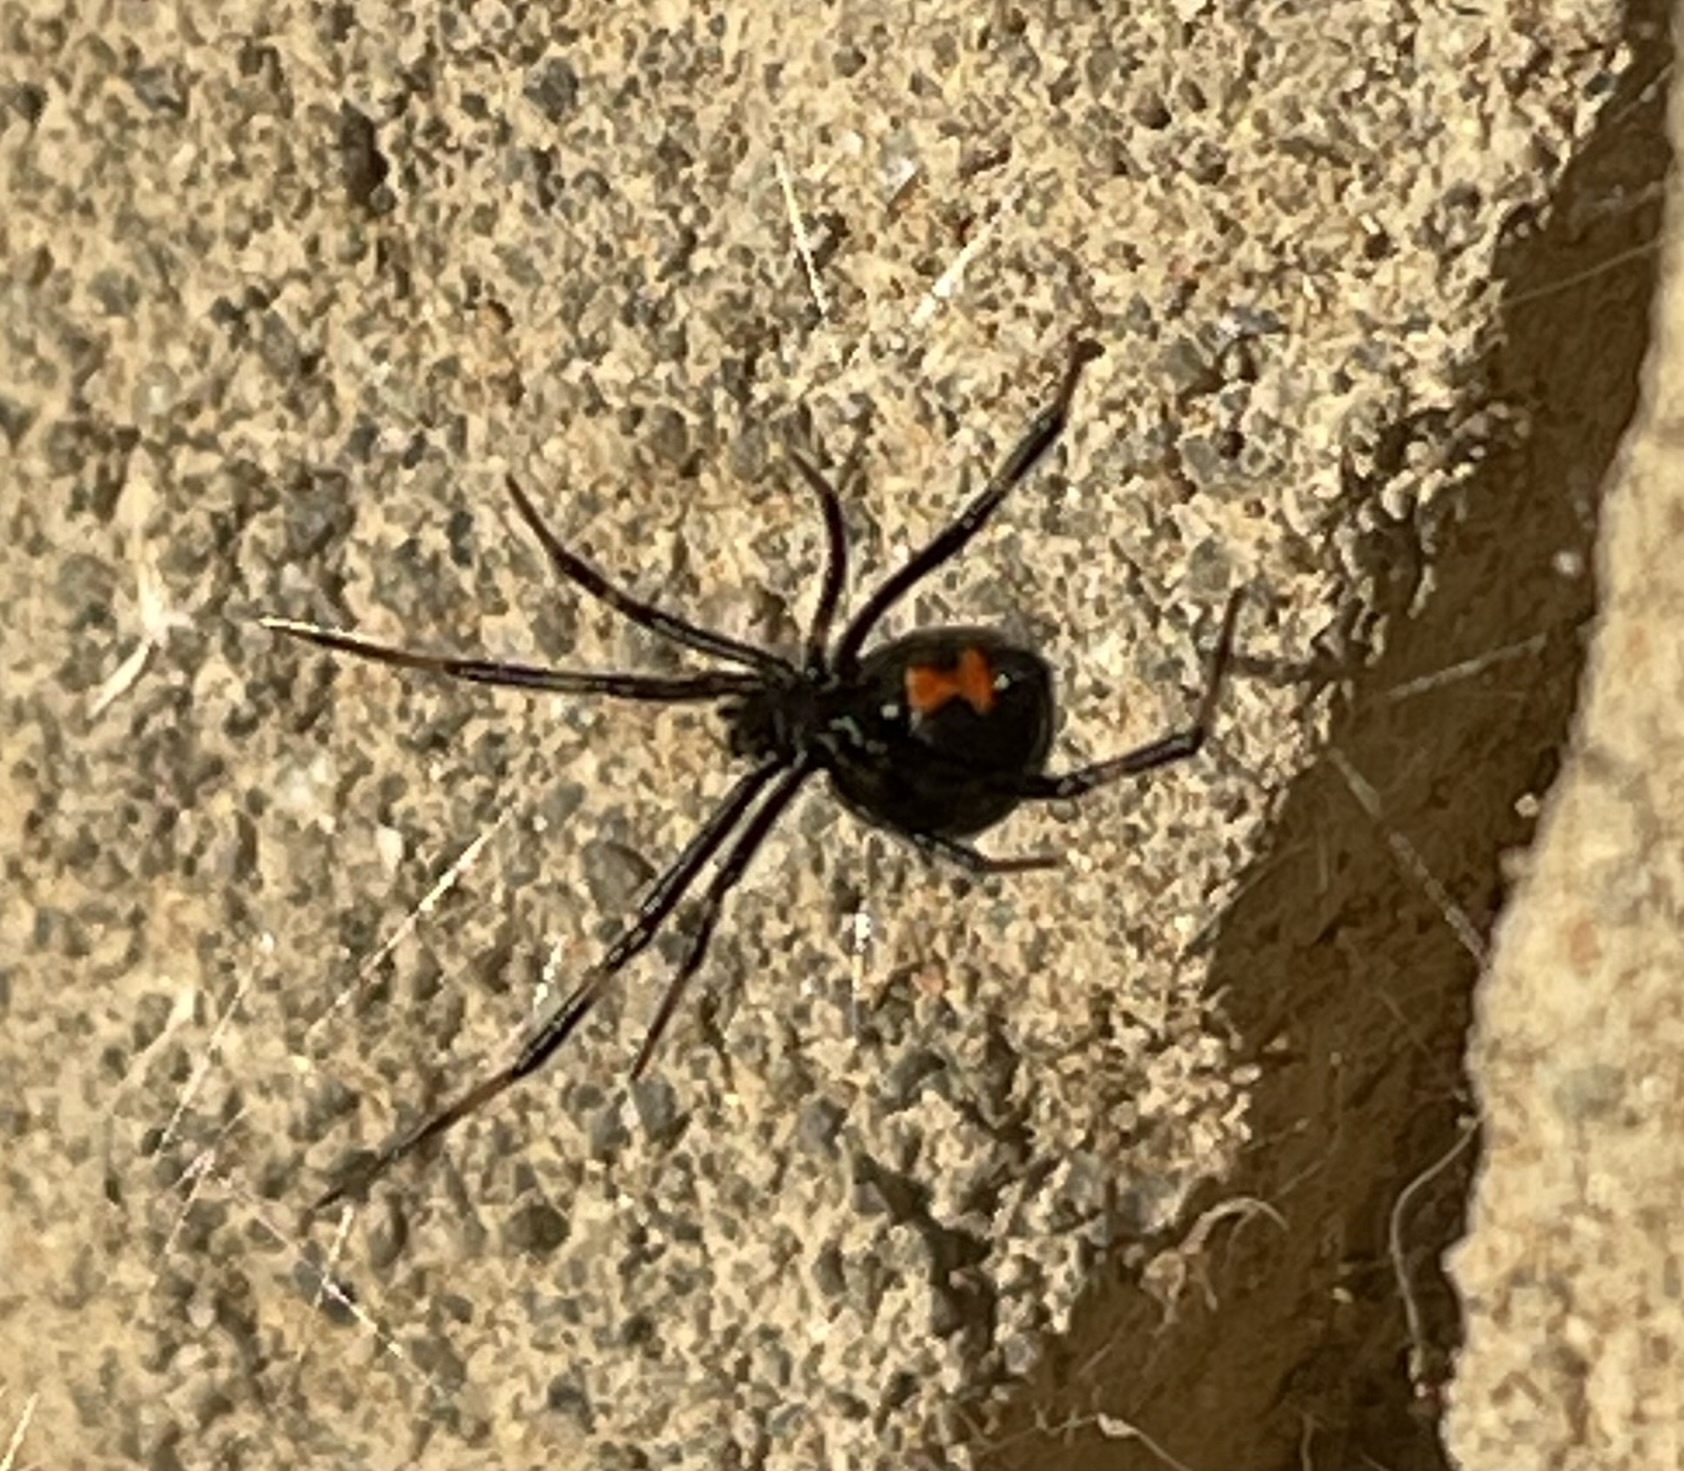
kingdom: Animalia
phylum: Arthropoda
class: Arachnida
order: Araneae
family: Theridiidae
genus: Latrodectus
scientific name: Latrodectus mactans
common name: Cobweb spiders
